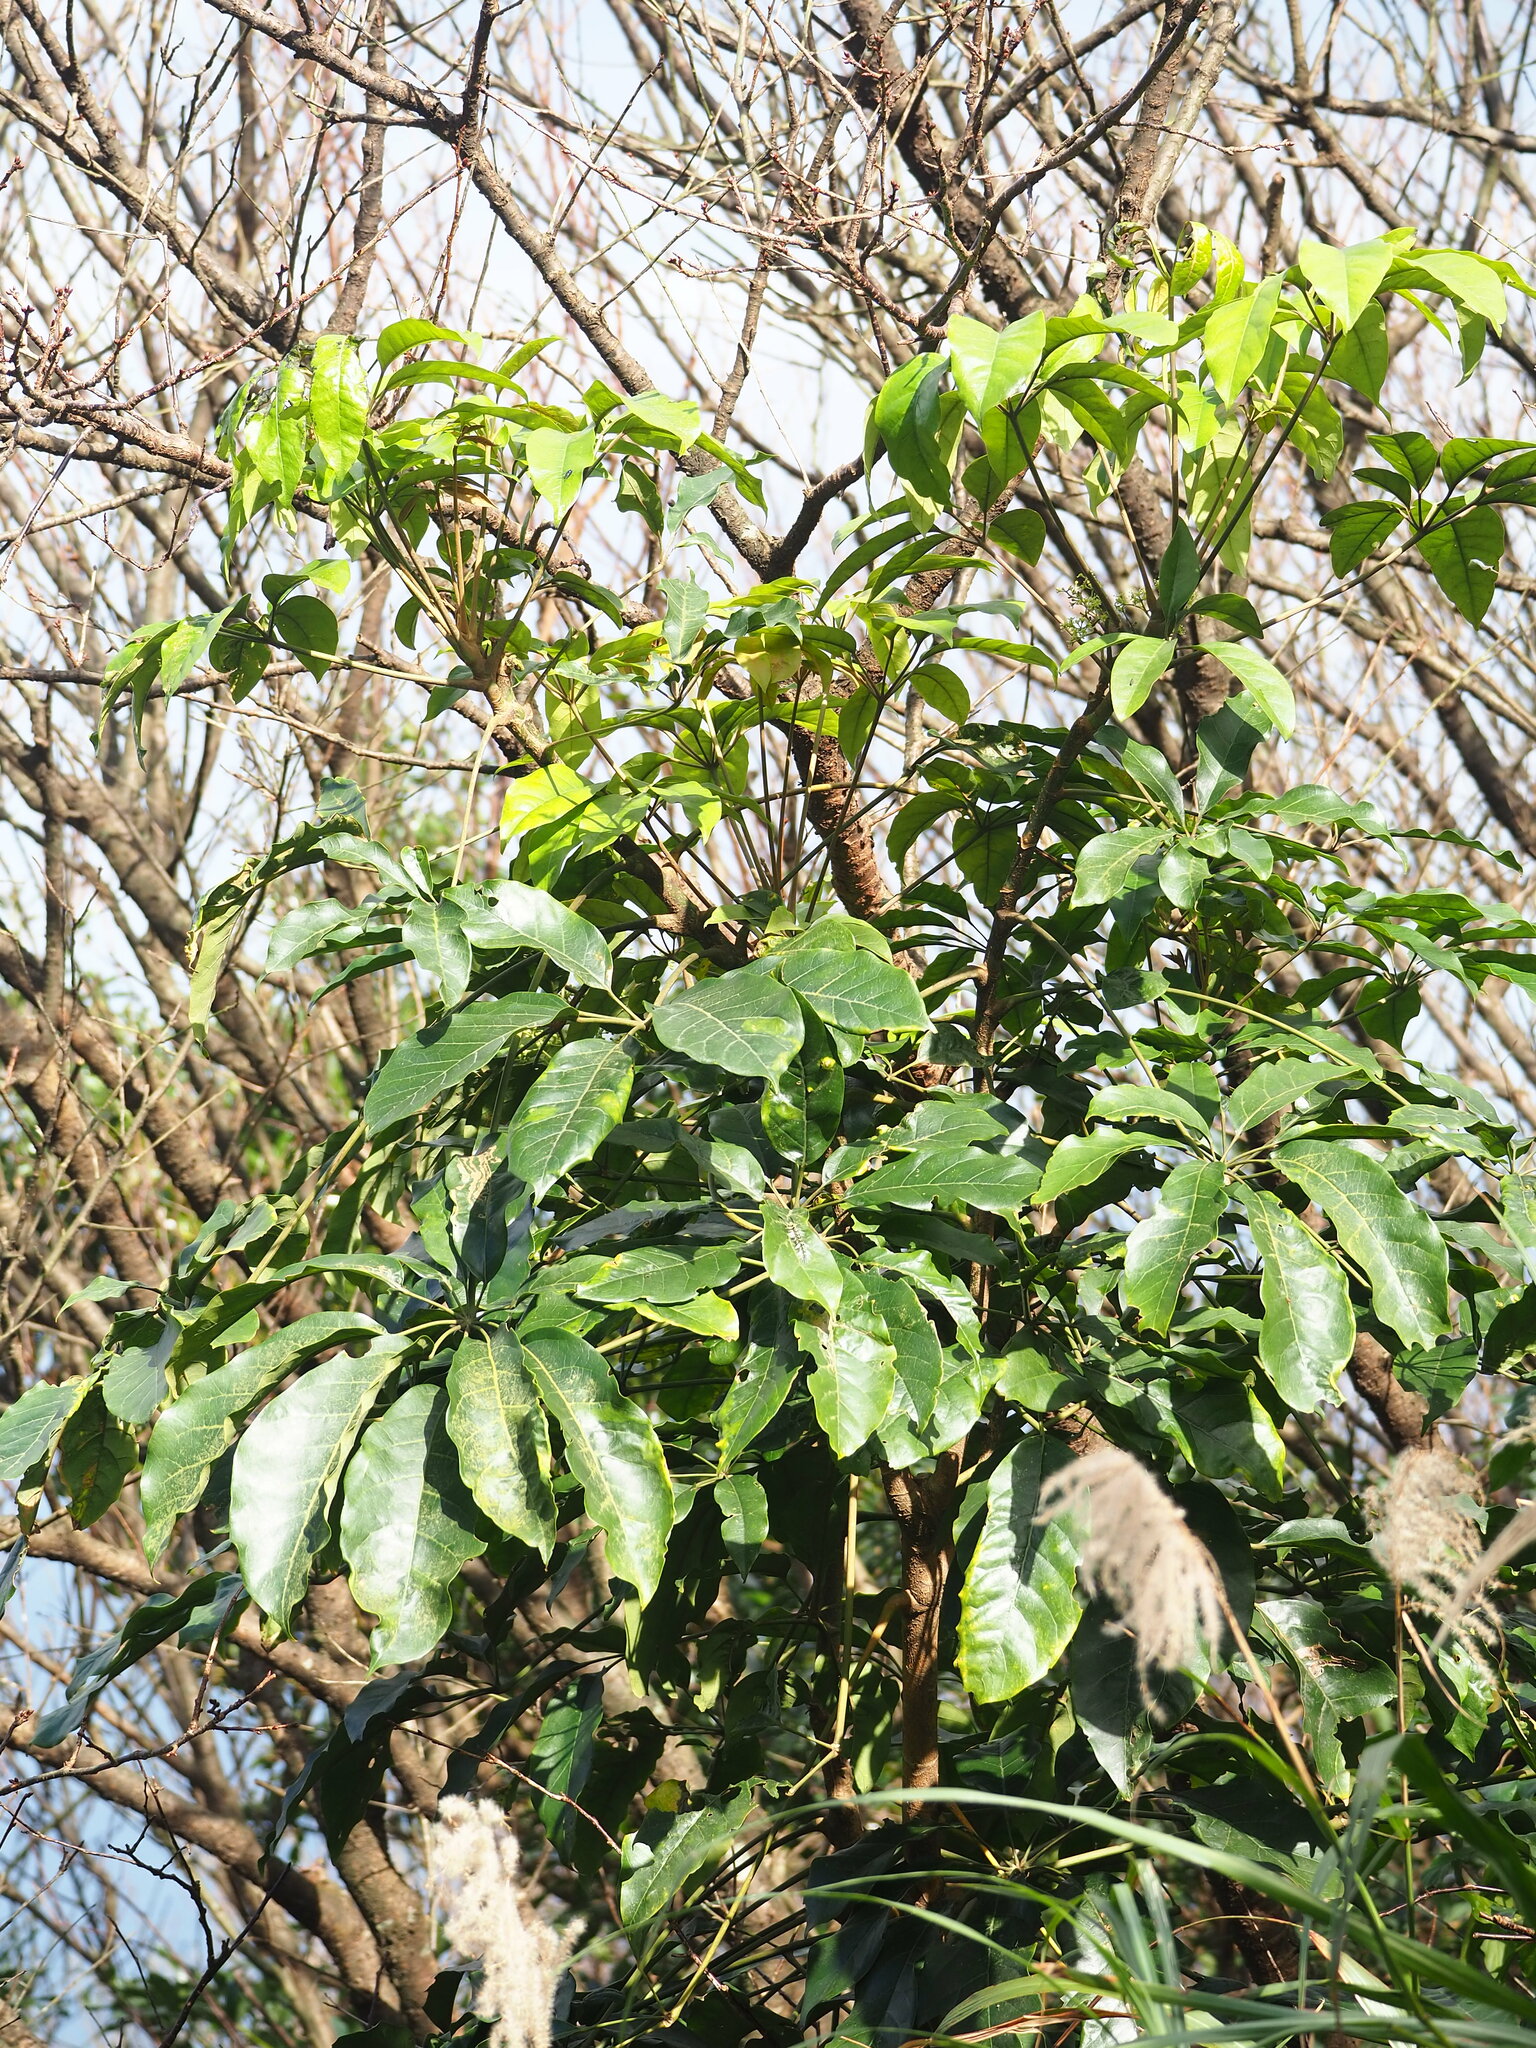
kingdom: Plantae
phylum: Tracheophyta
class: Magnoliopsida
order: Apiales
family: Araliaceae
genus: Heptapleurum
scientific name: Heptapleurum heptaphyllum
